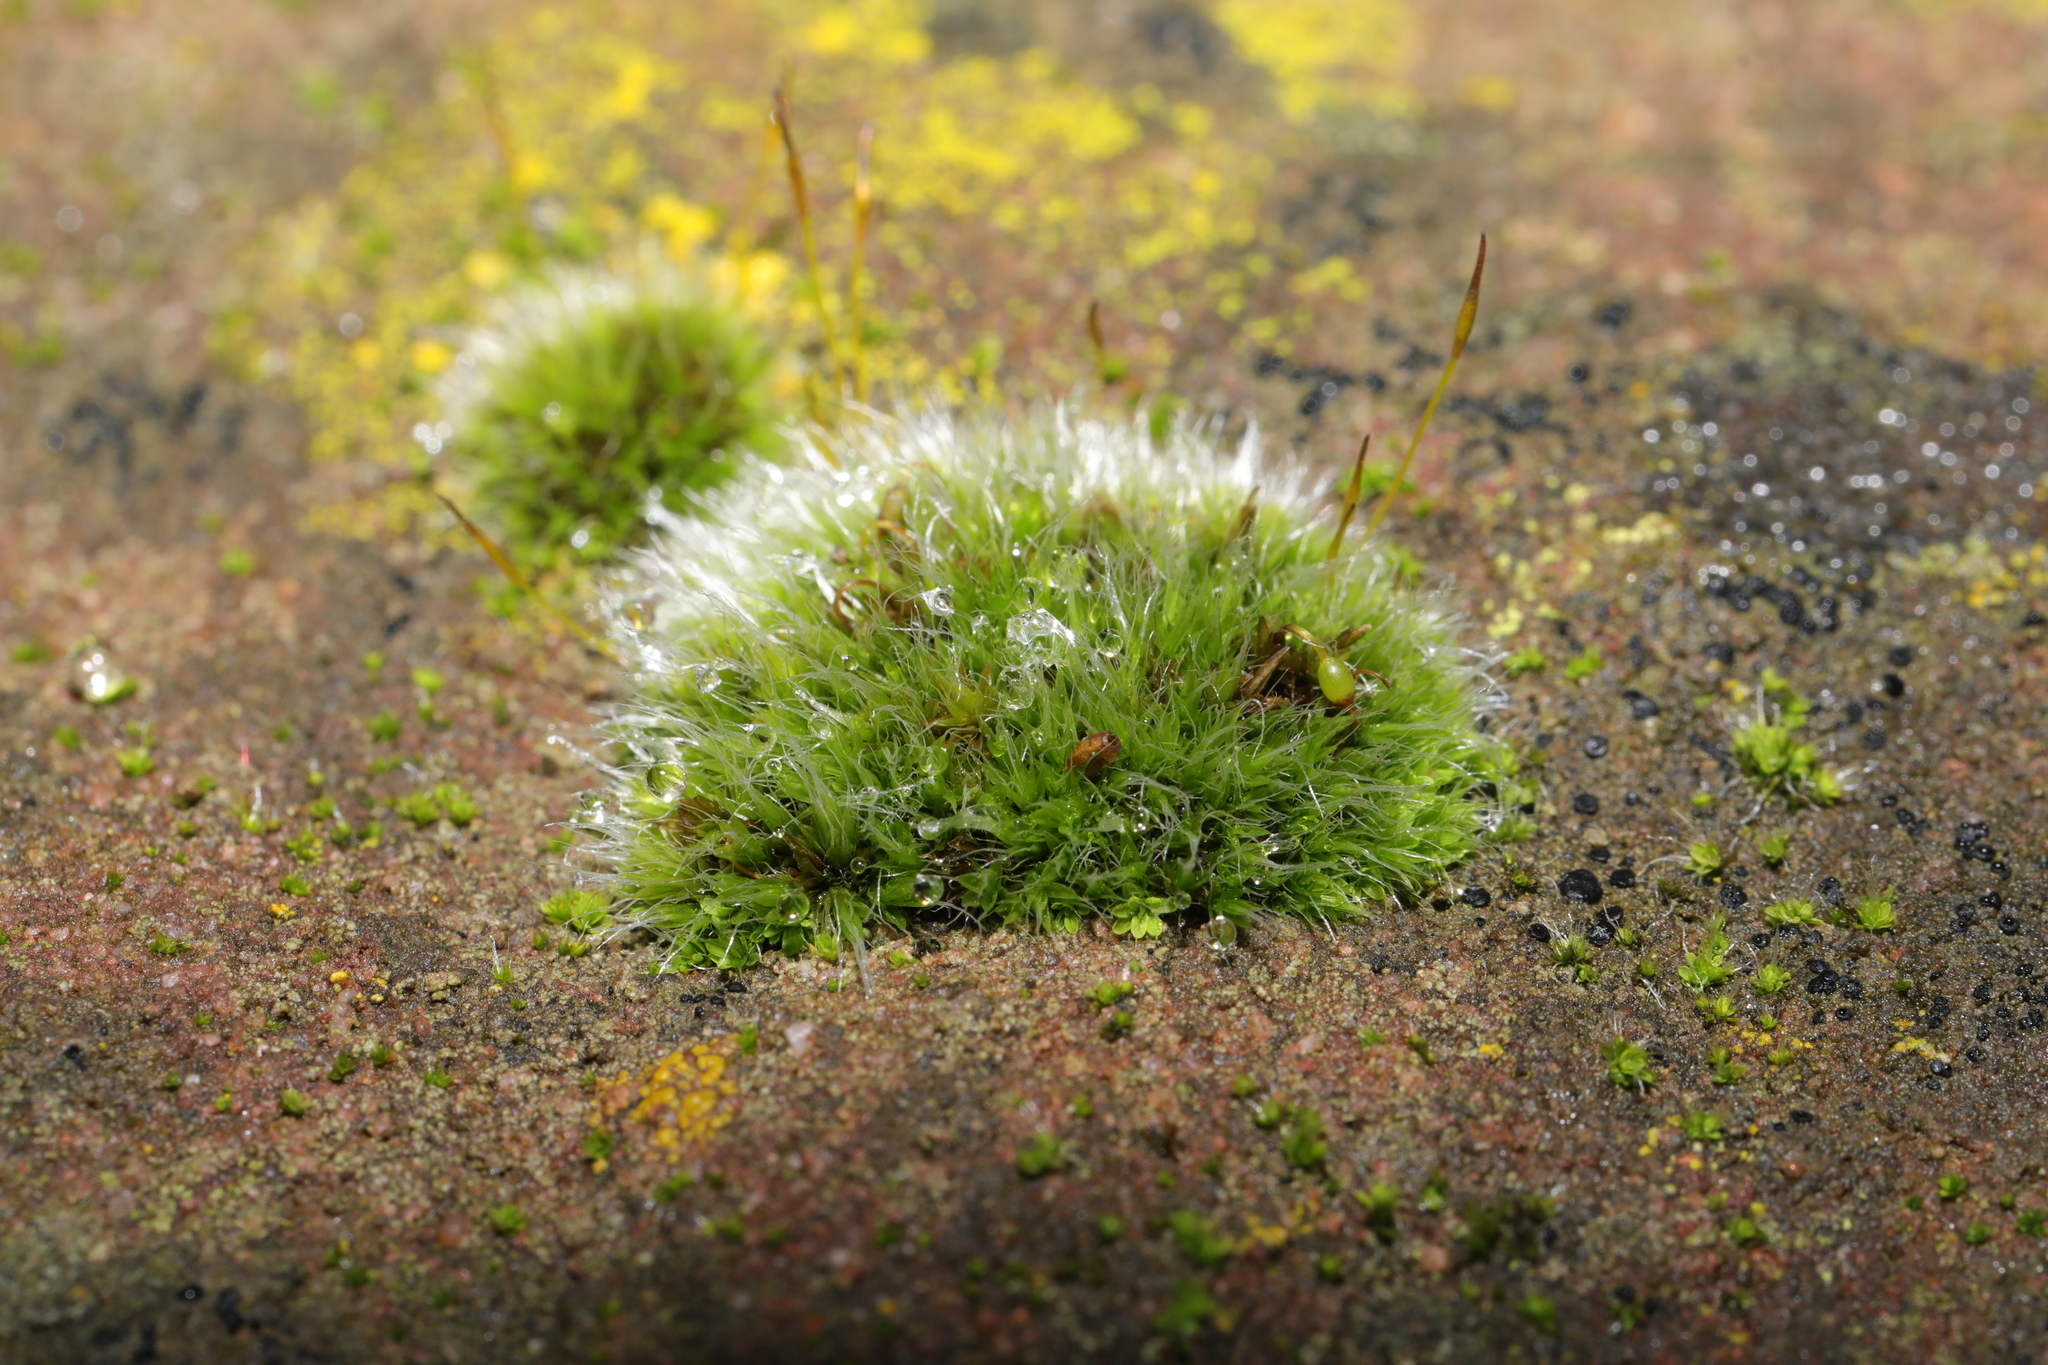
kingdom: Plantae
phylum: Bryophyta
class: Bryopsida
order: Grimmiales
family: Grimmiaceae
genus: Grimmia
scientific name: Grimmia pulvinata
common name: Grey-cushioned grimmia
